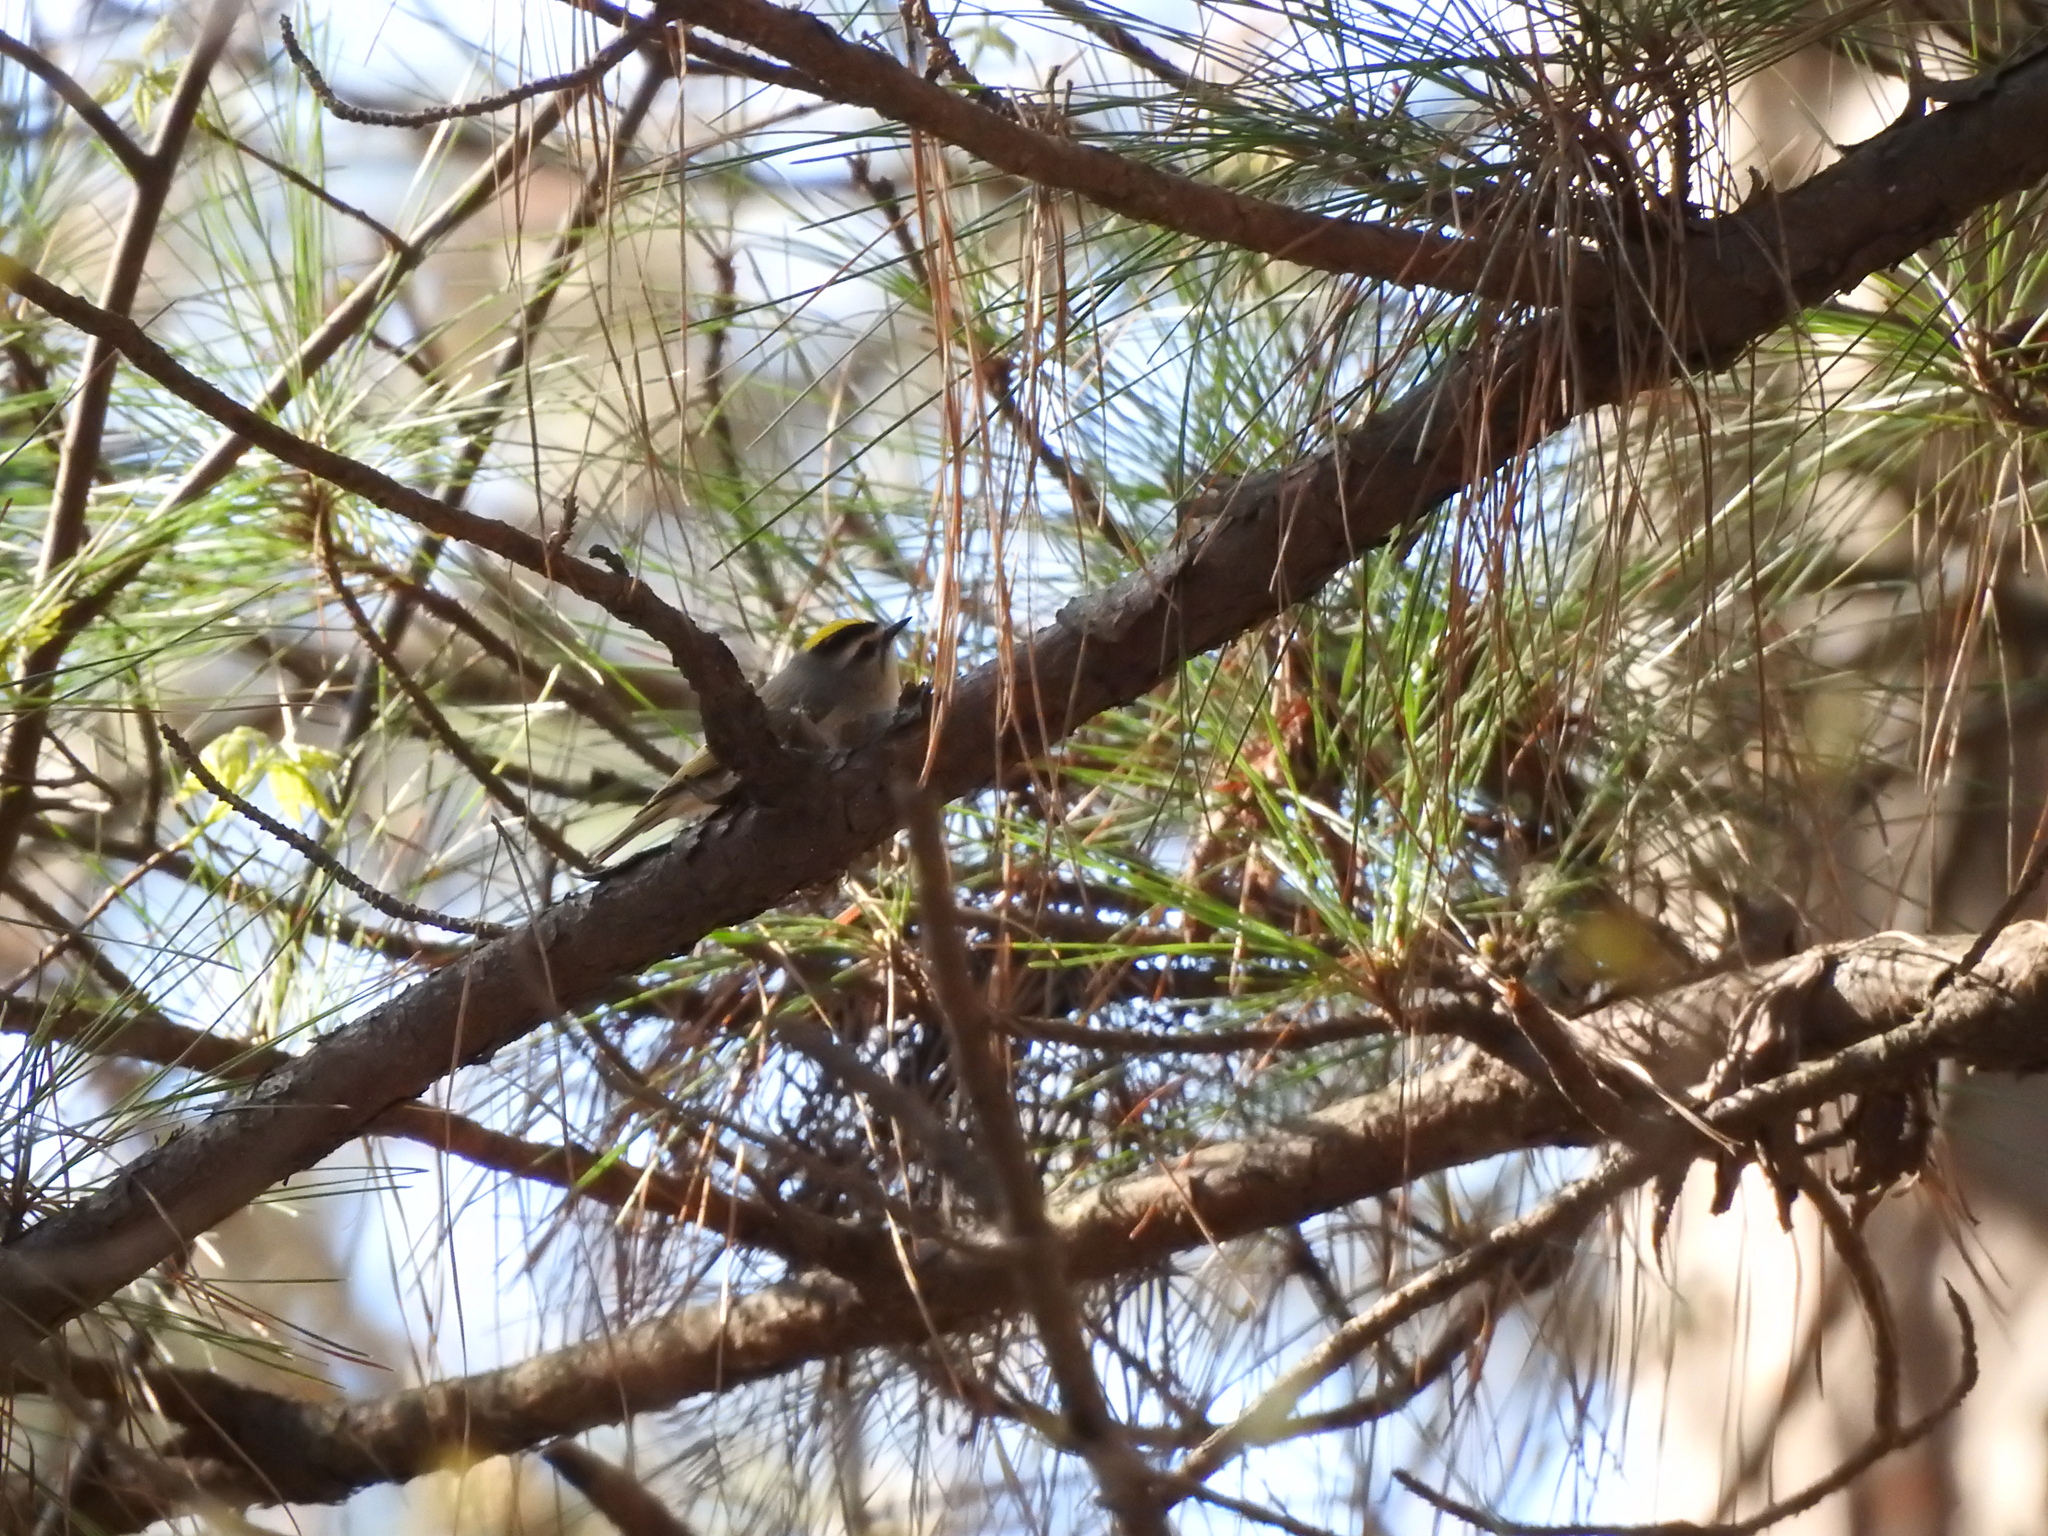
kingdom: Animalia
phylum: Chordata
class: Aves
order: Passeriformes
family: Regulidae
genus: Regulus
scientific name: Regulus satrapa
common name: Golden-crowned kinglet
